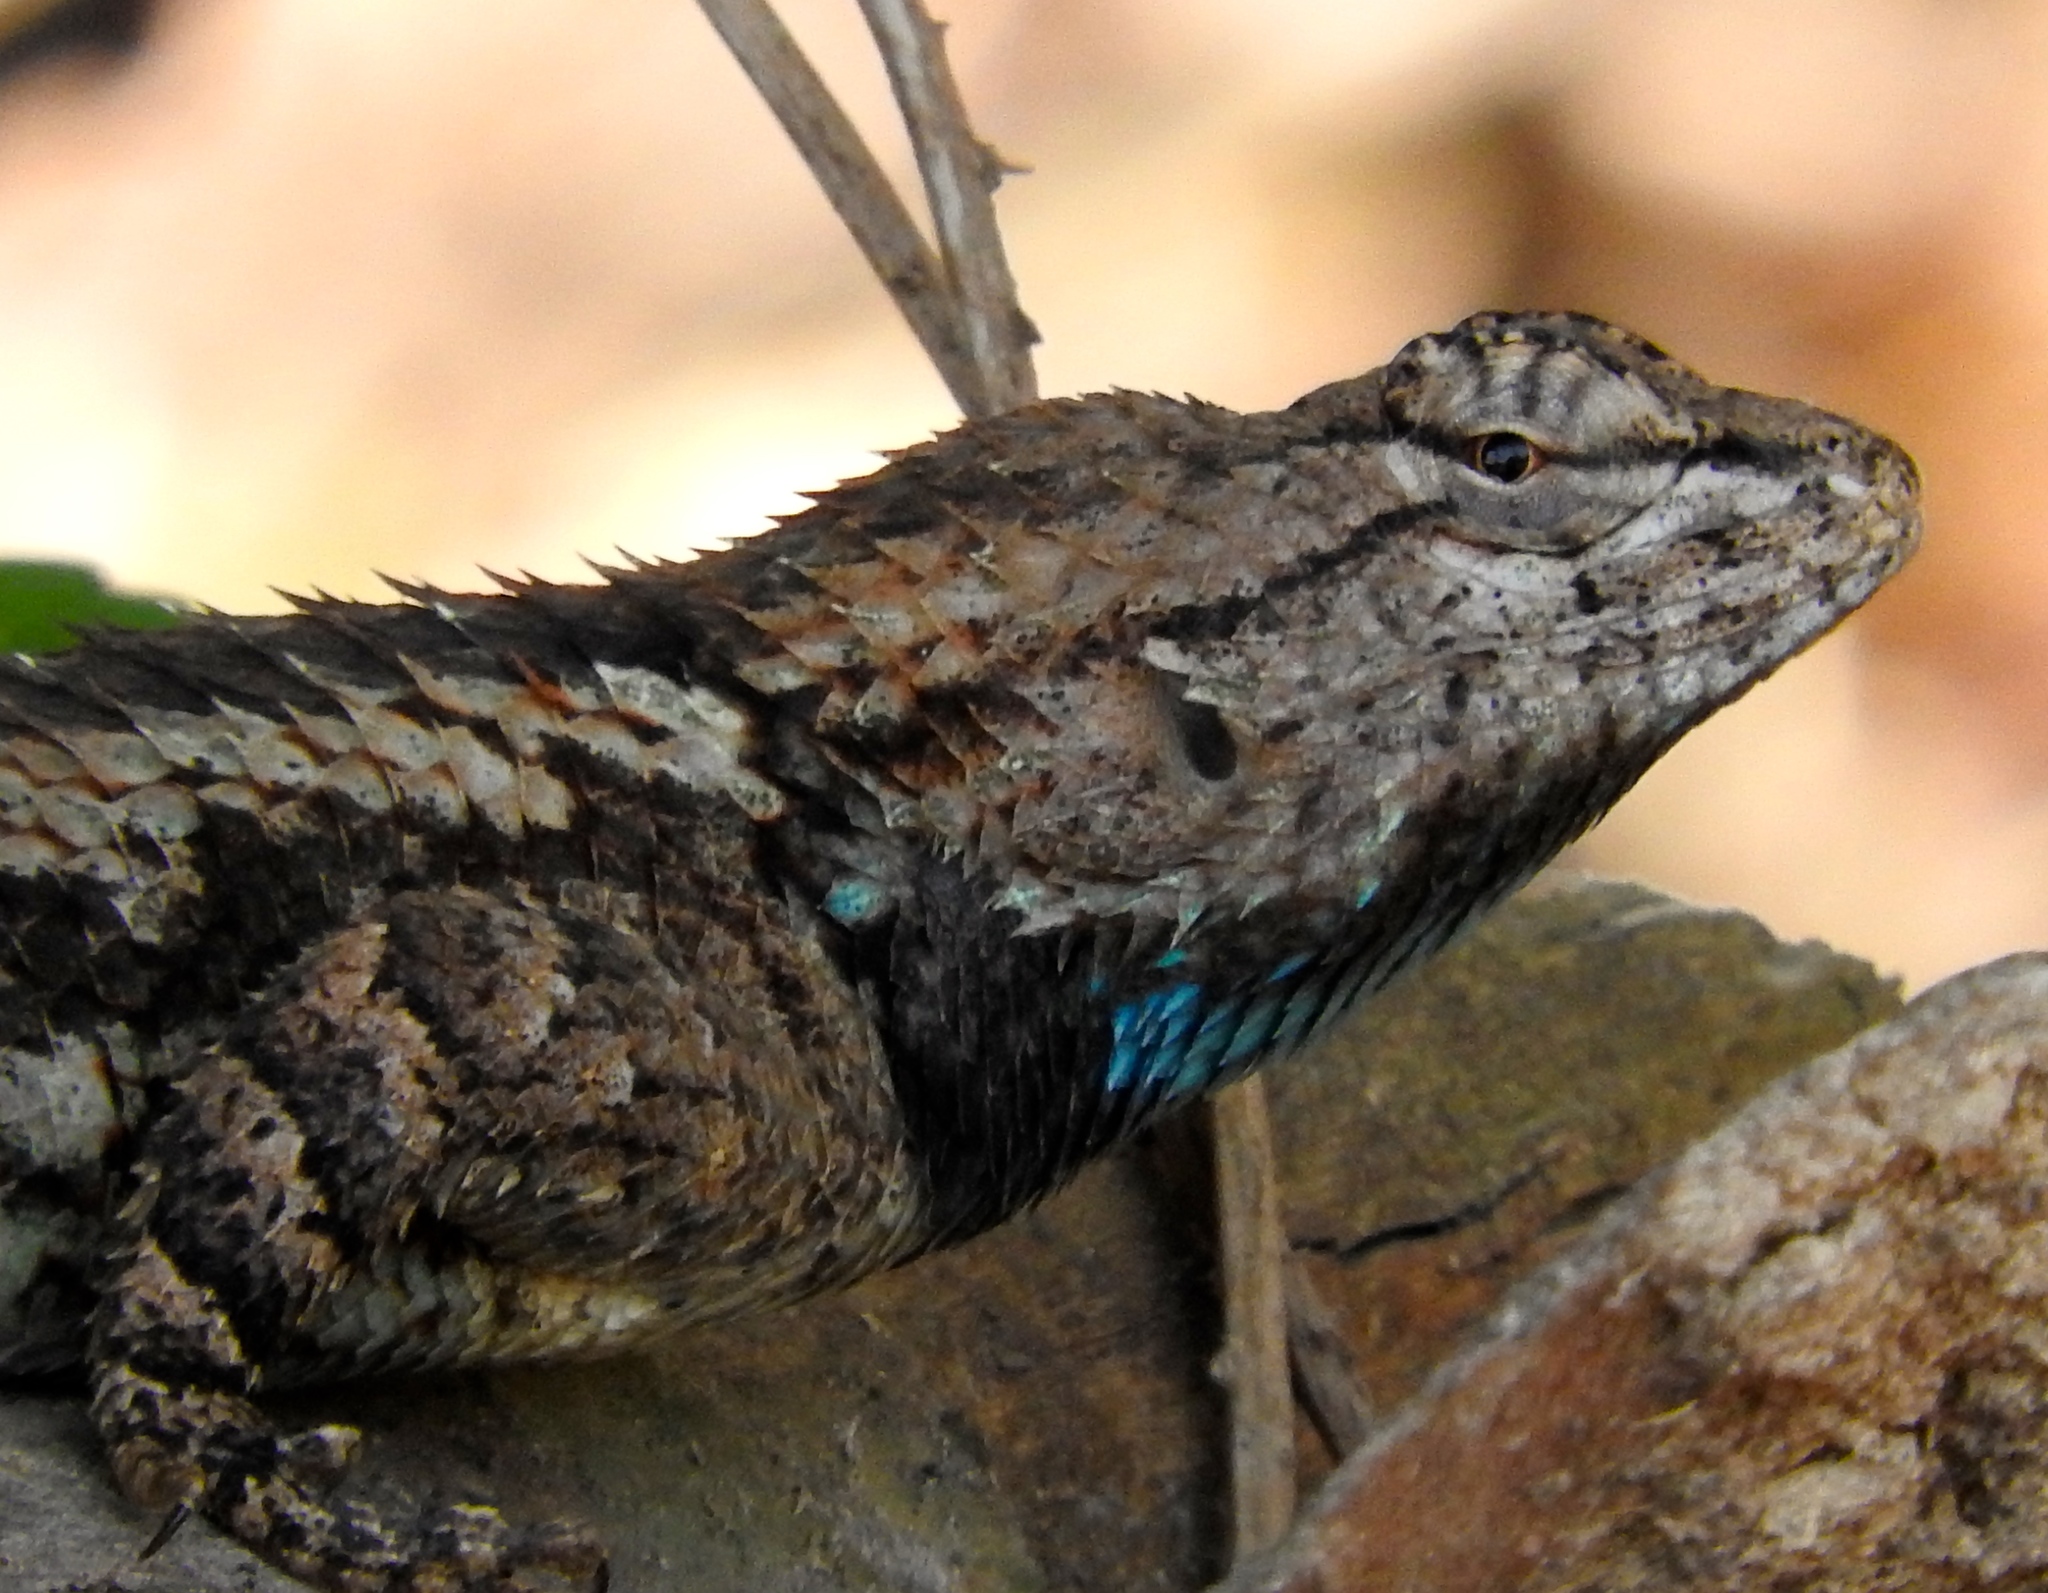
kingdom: Animalia
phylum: Chordata
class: Squamata
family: Phrynosomatidae
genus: Sceloporus
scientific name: Sceloporus clarkii
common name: Clark's spiny lizard
